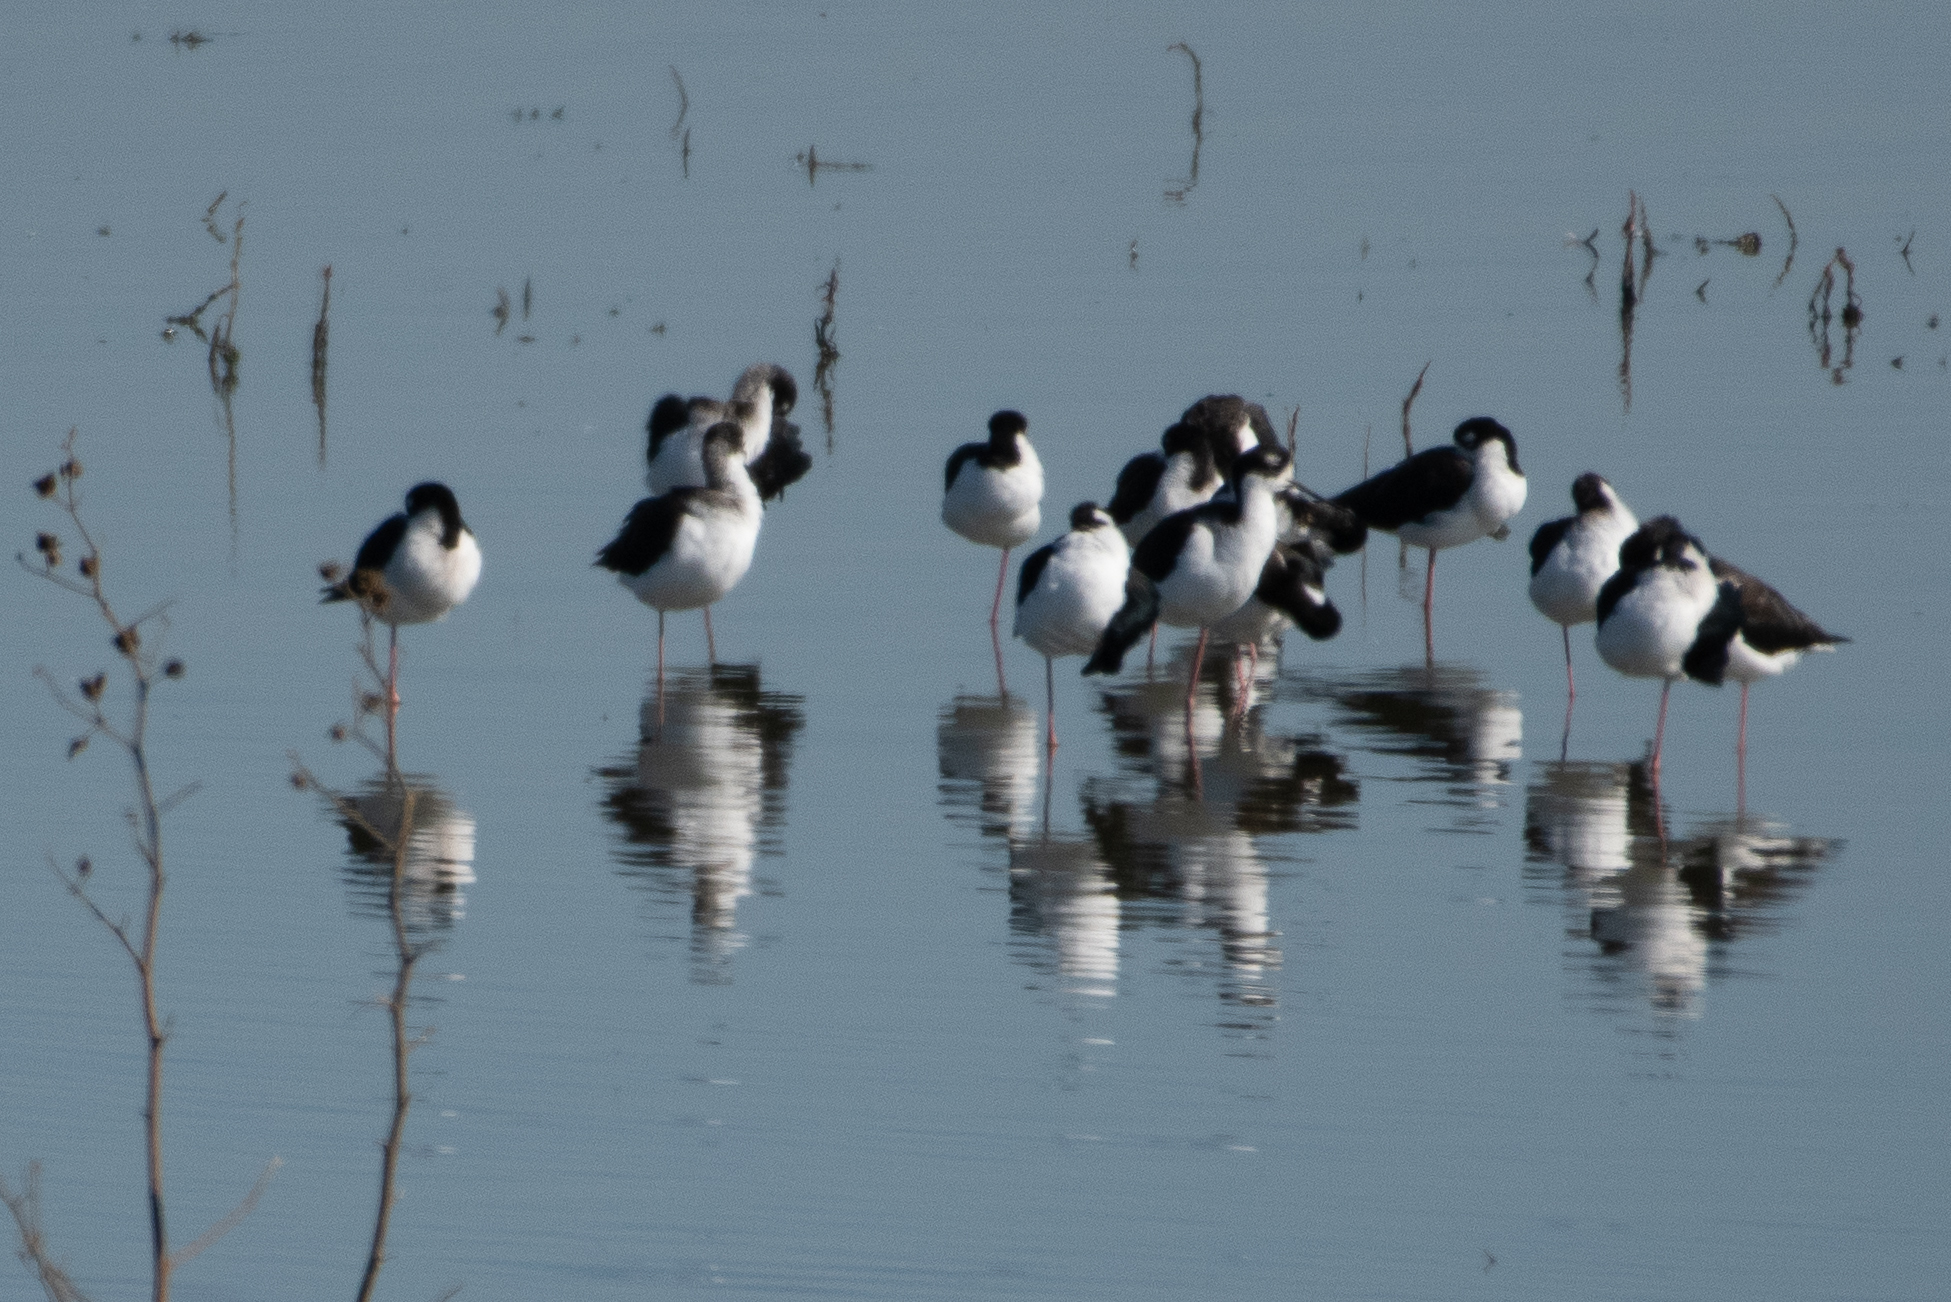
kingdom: Animalia
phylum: Chordata
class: Aves
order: Charadriiformes
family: Recurvirostridae
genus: Himantopus
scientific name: Himantopus mexicanus
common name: Black-necked stilt
